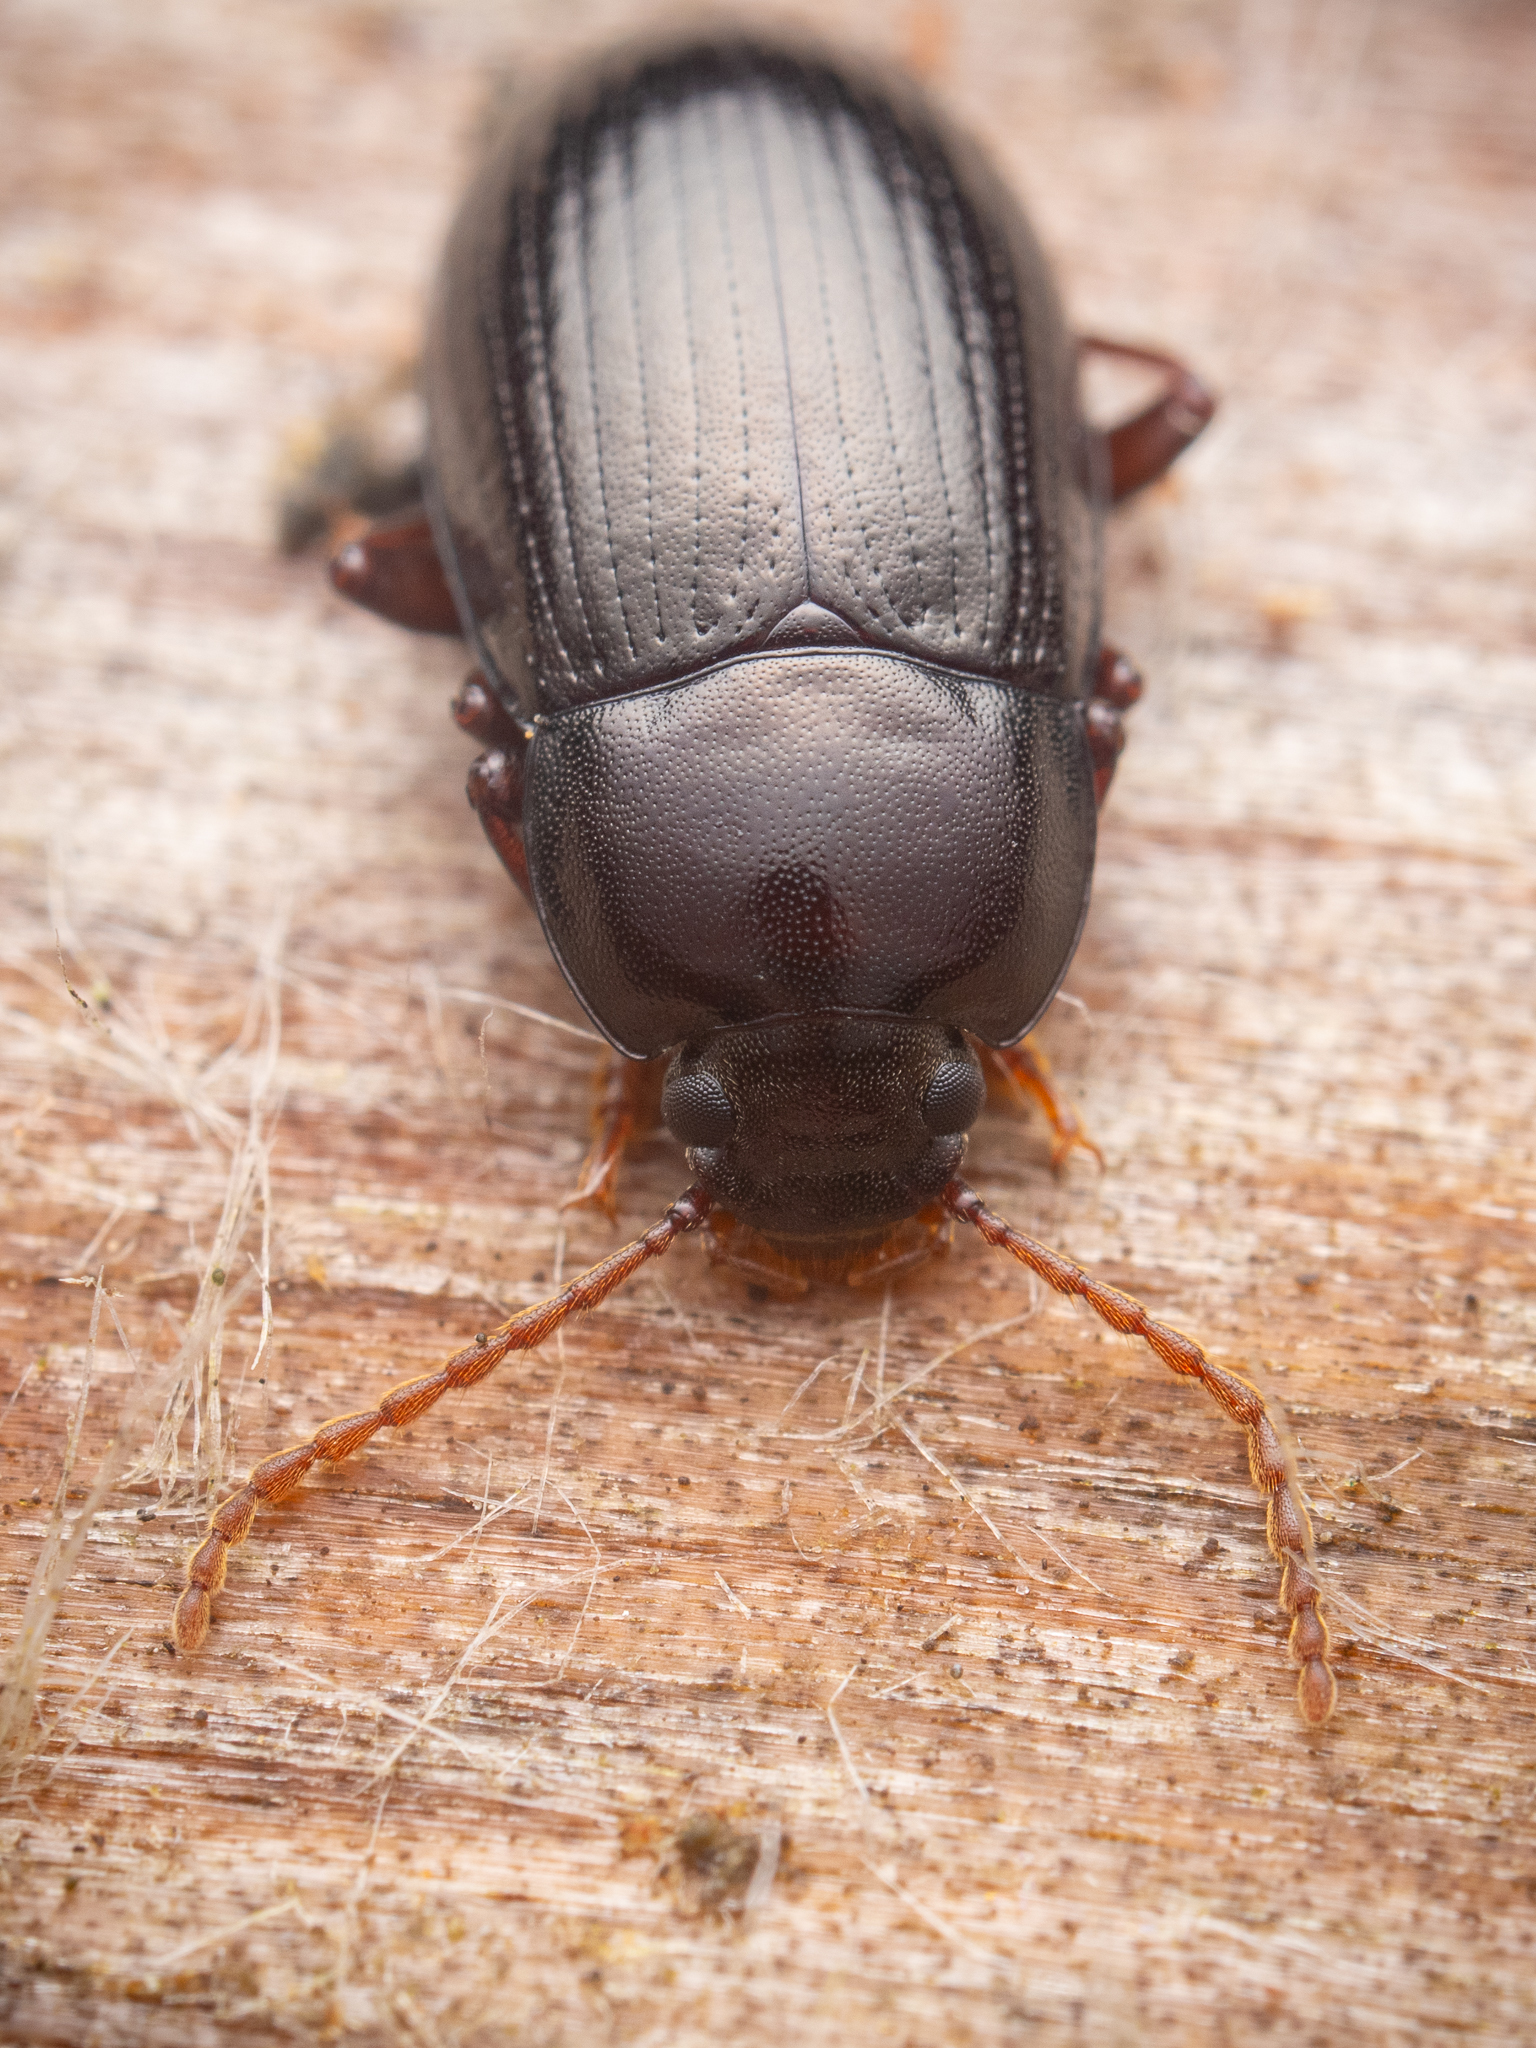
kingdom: Animalia
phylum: Arthropoda
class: Insecta
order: Coleoptera
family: Tenebrionidae
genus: Nalassus
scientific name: Nalassus dermestoides
